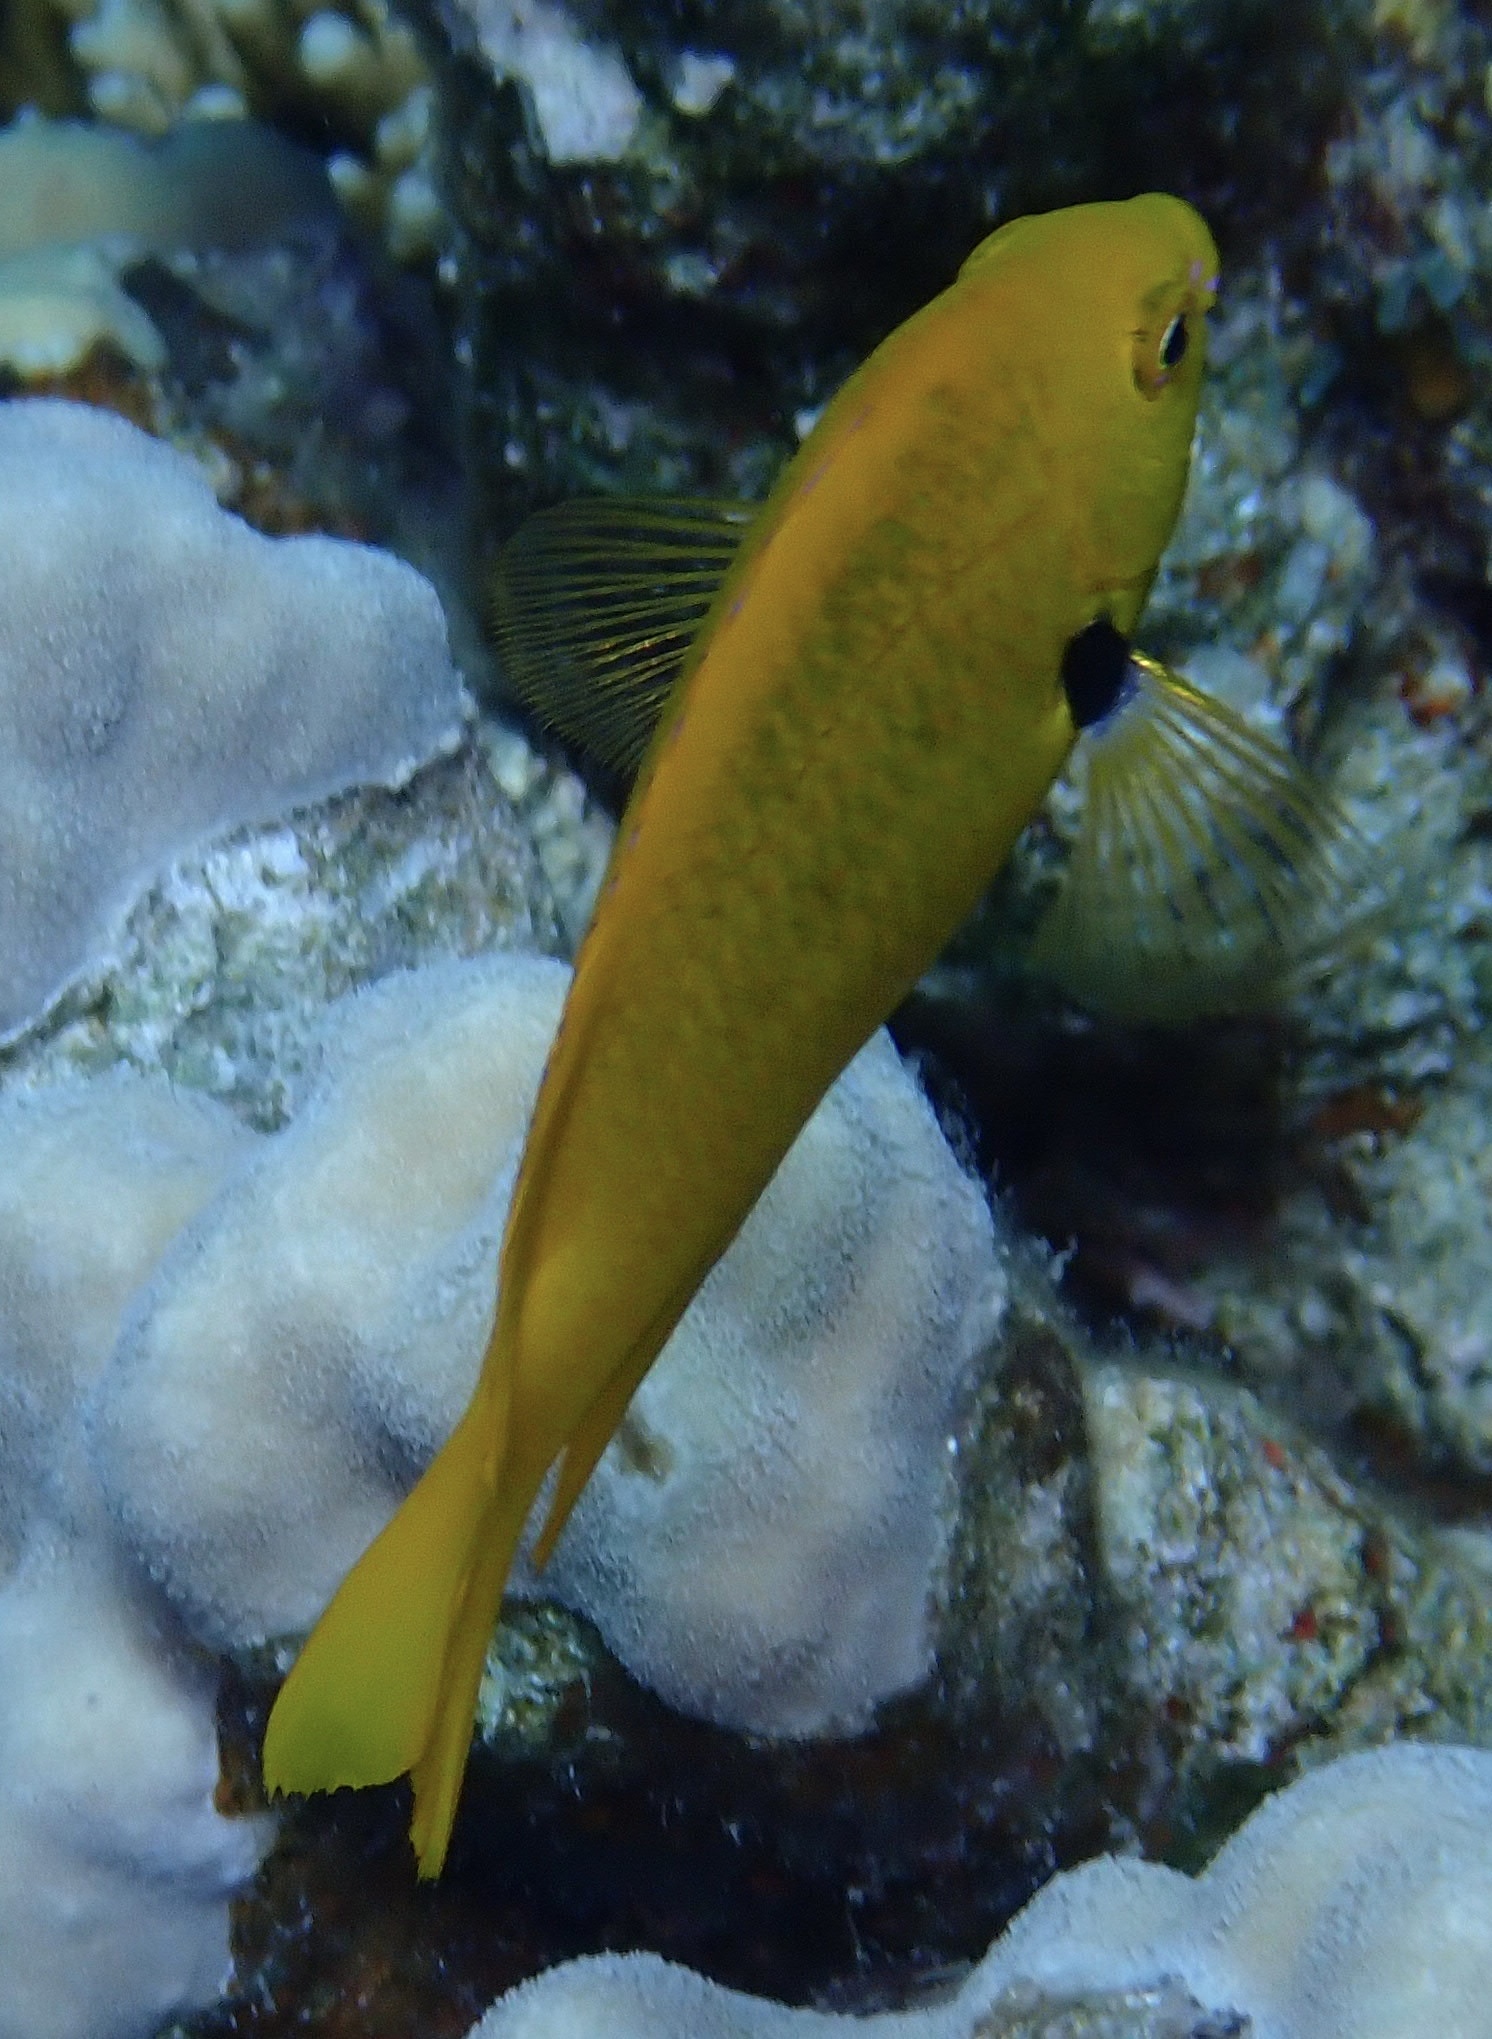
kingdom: Animalia
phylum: Chordata
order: Perciformes
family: Pomacentridae
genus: Pomacentrus
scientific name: Pomacentrus sulfureus
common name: Sulfur damsel
